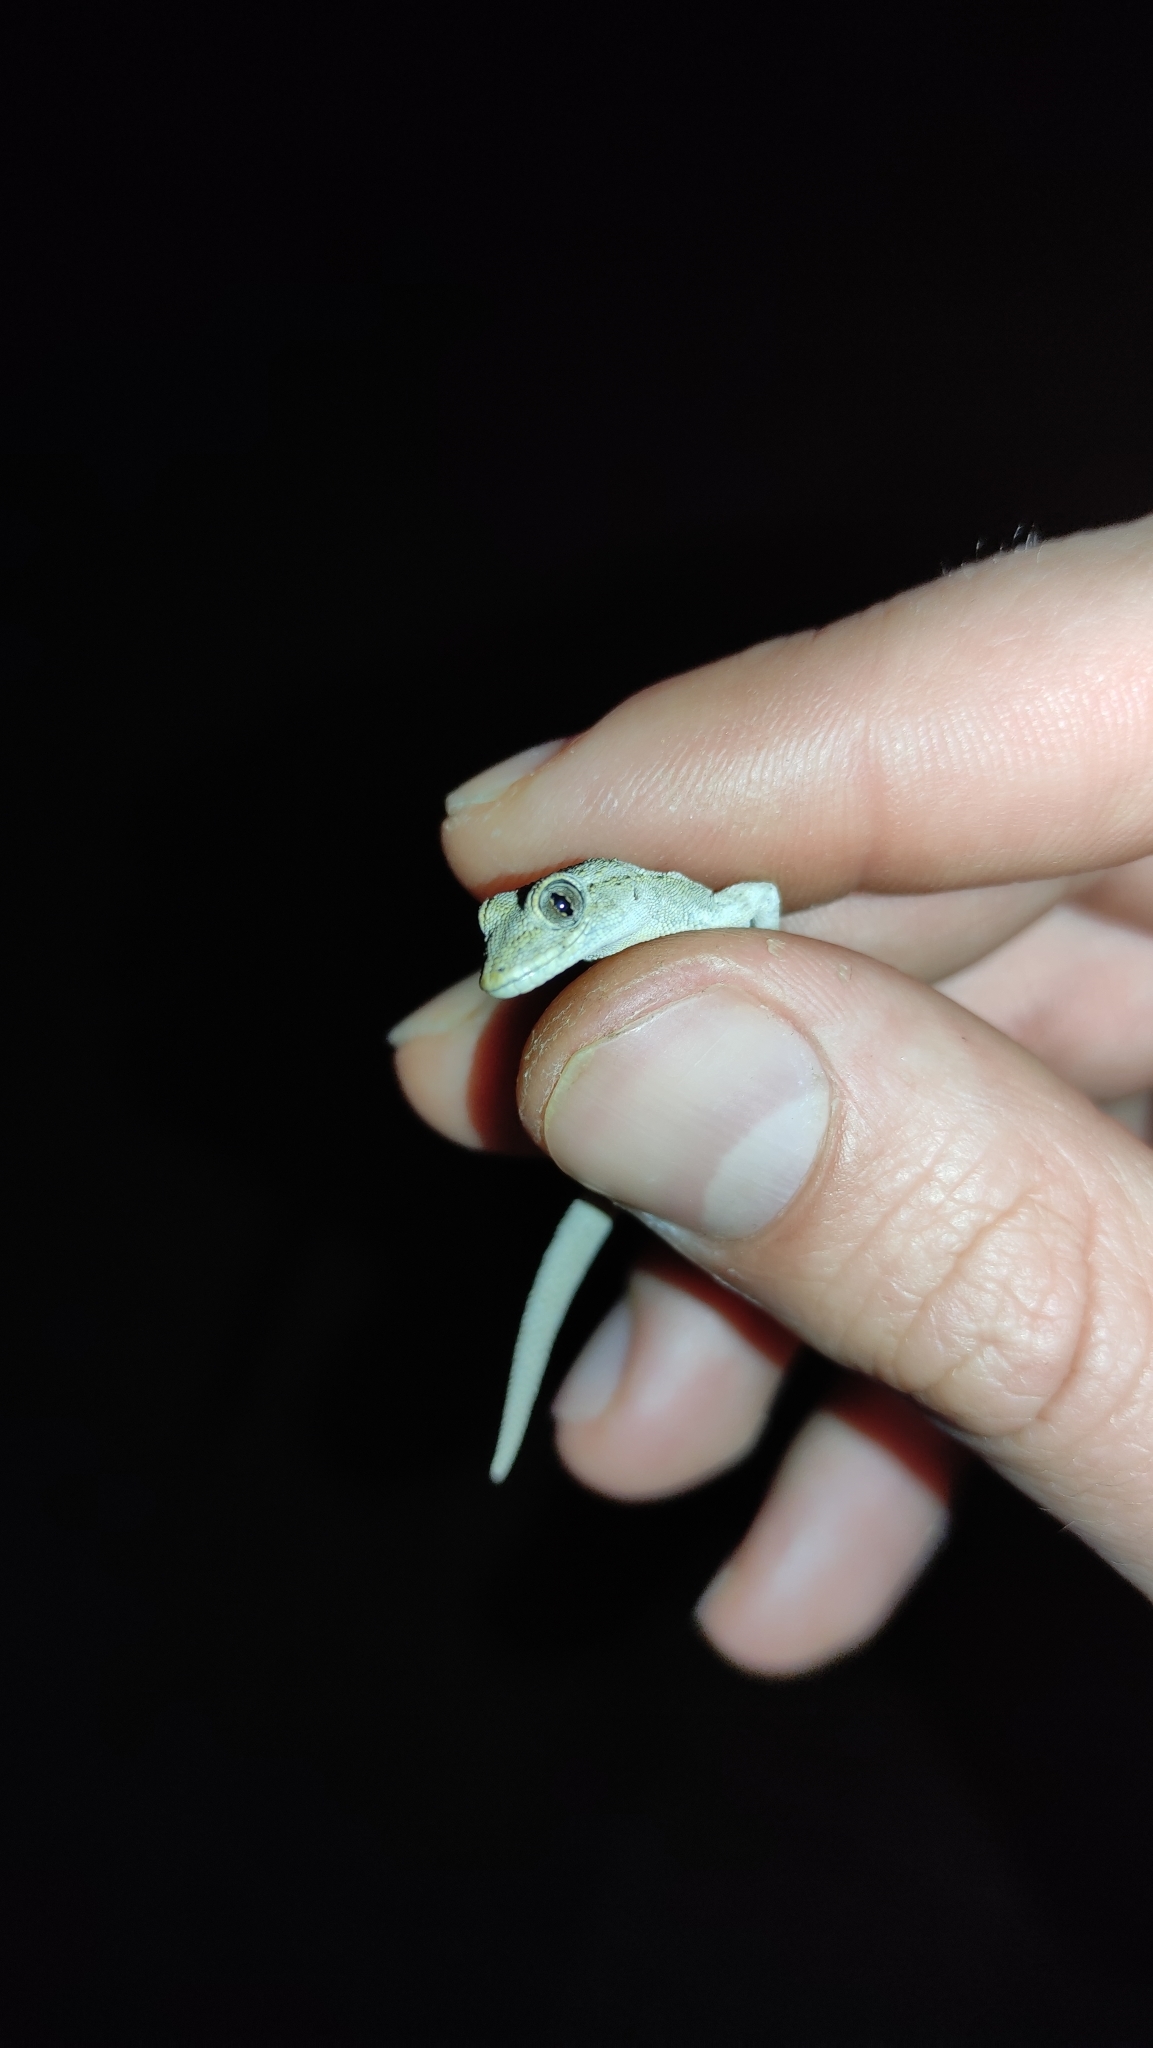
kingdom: Animalia
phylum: Chordata
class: Squamata
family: Gekkonidae
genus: Mediodactylus
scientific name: Mediodactylus danilewskii
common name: Bulgarian bent-toed gecko
